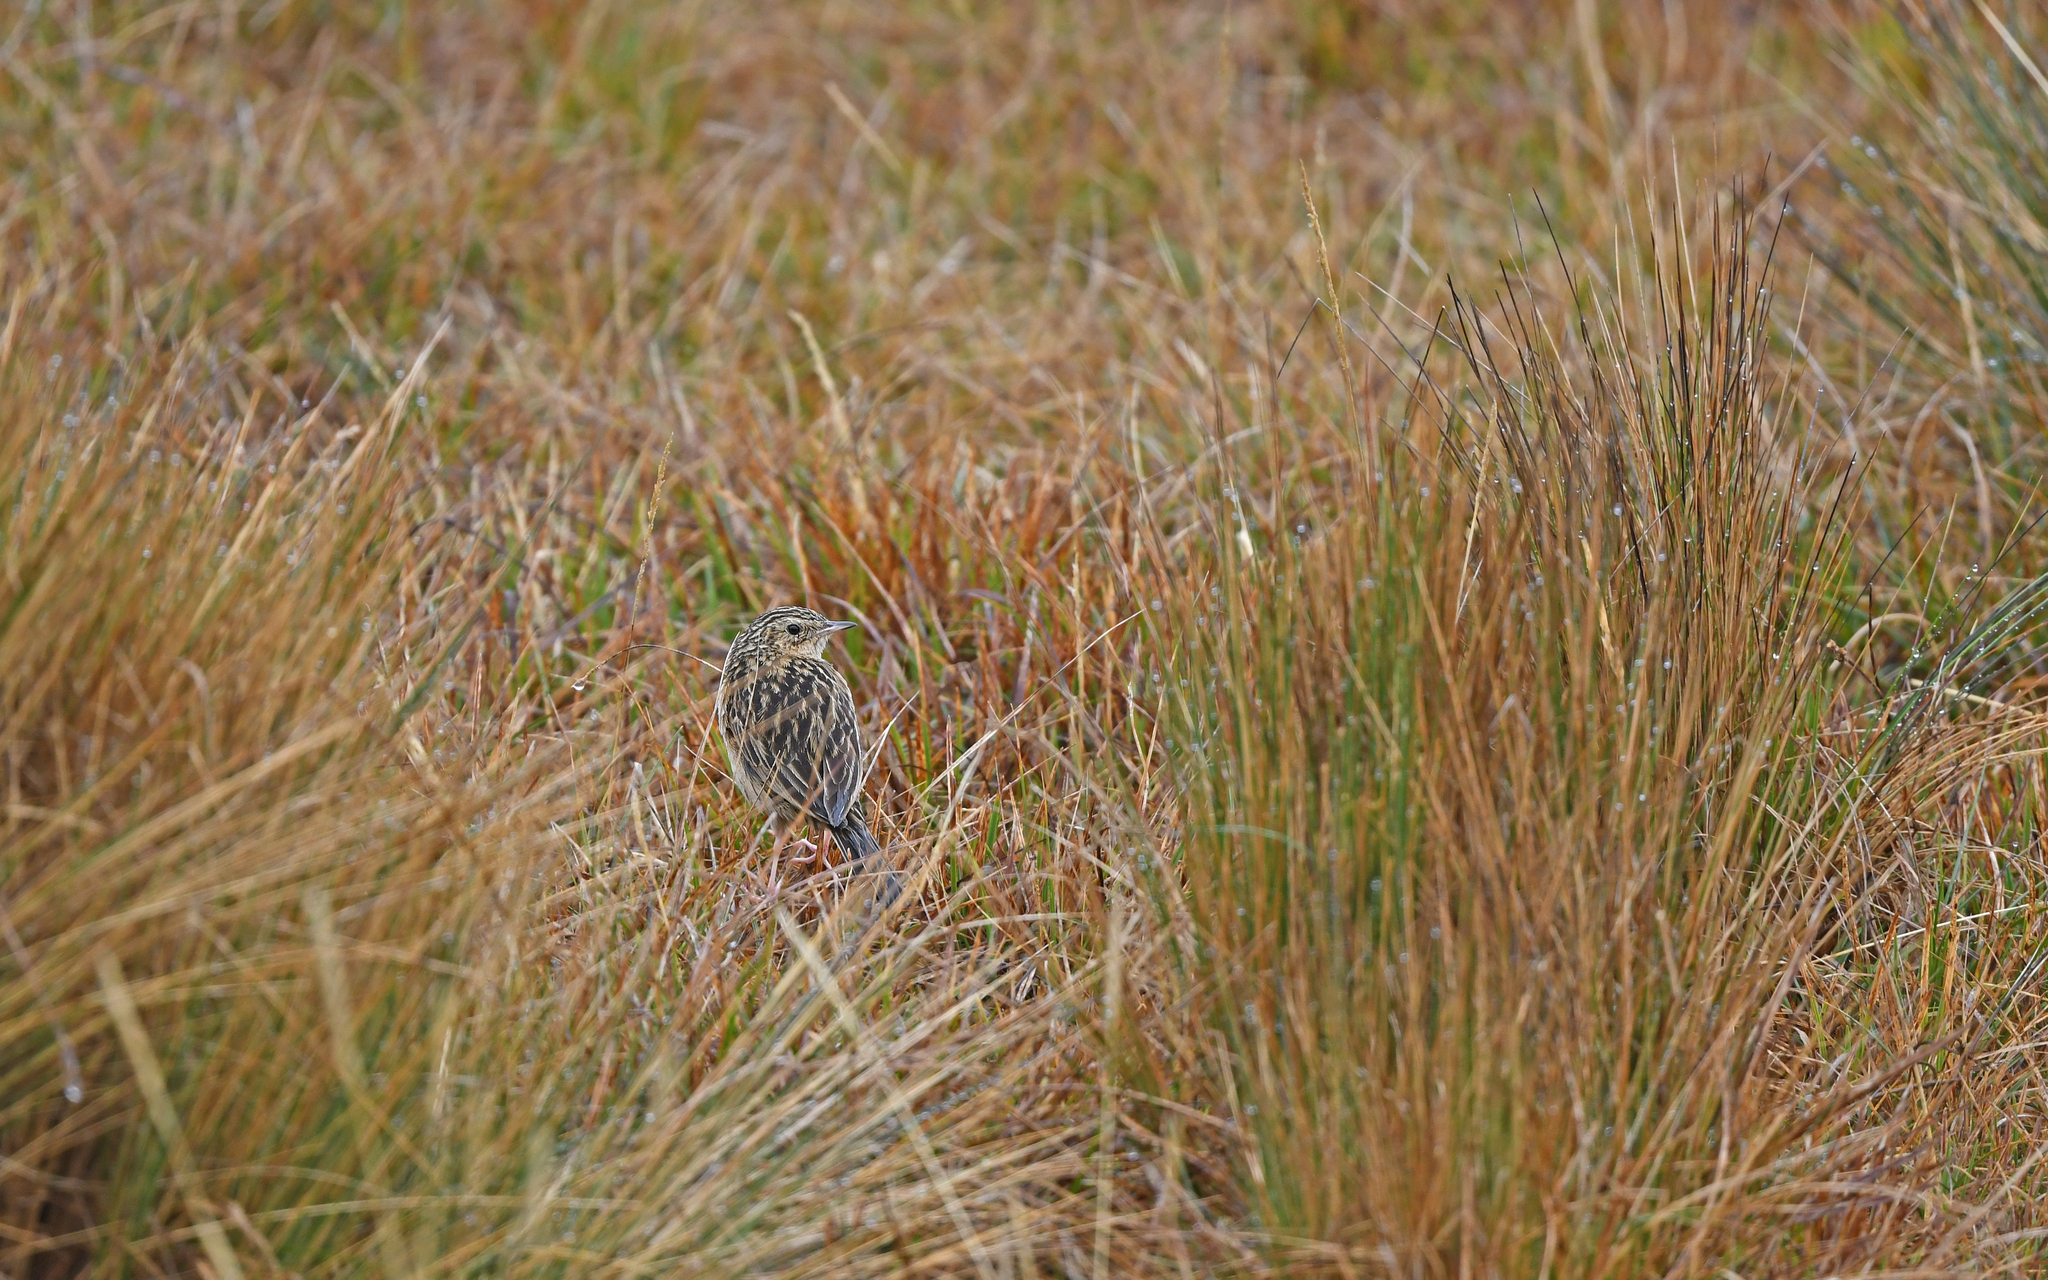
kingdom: Animalia
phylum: Chordata
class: Aves
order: Passeriformes
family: Motacillidae
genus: Anthus
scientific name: Anthus bogotensis
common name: Paramo pipit
